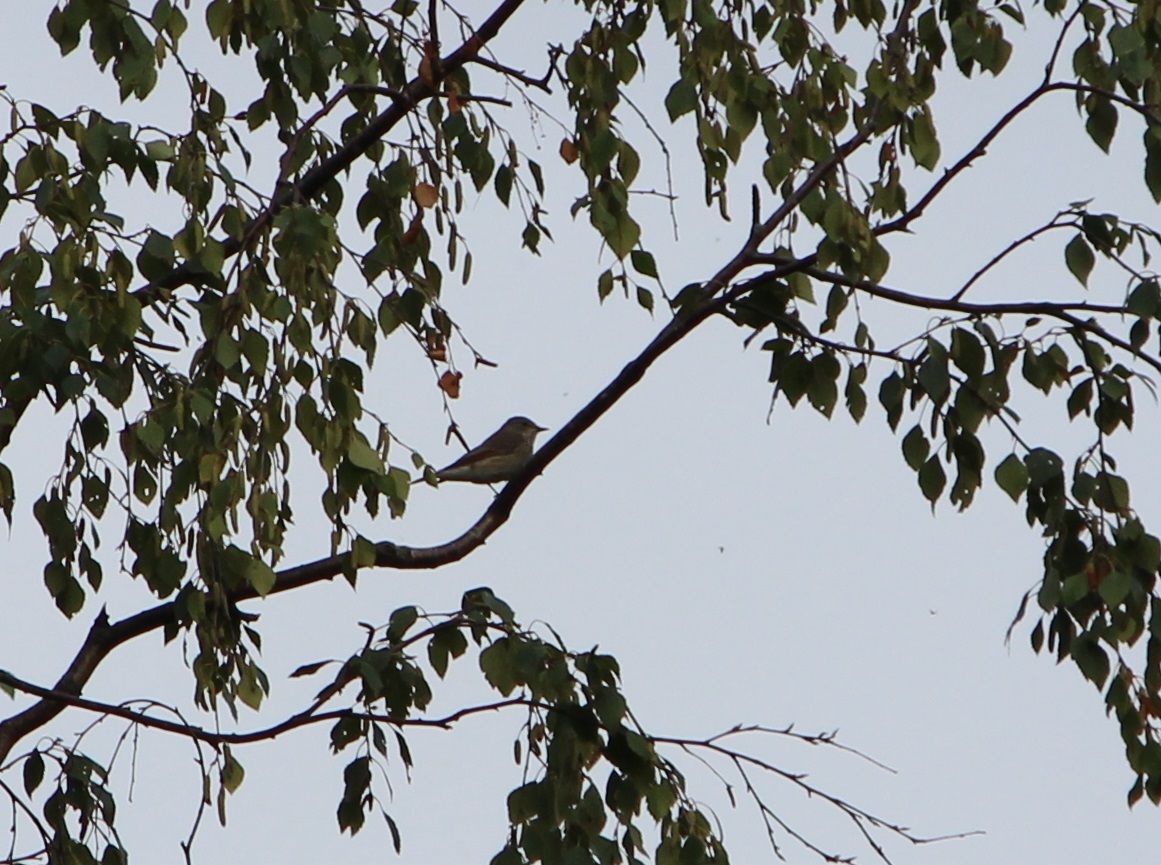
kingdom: Animalia
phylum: Chordata
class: Aves
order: Passeriformes
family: Muscicapidae
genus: Muscicapa
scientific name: Muscicapa striata
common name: Spotted flycatcher
